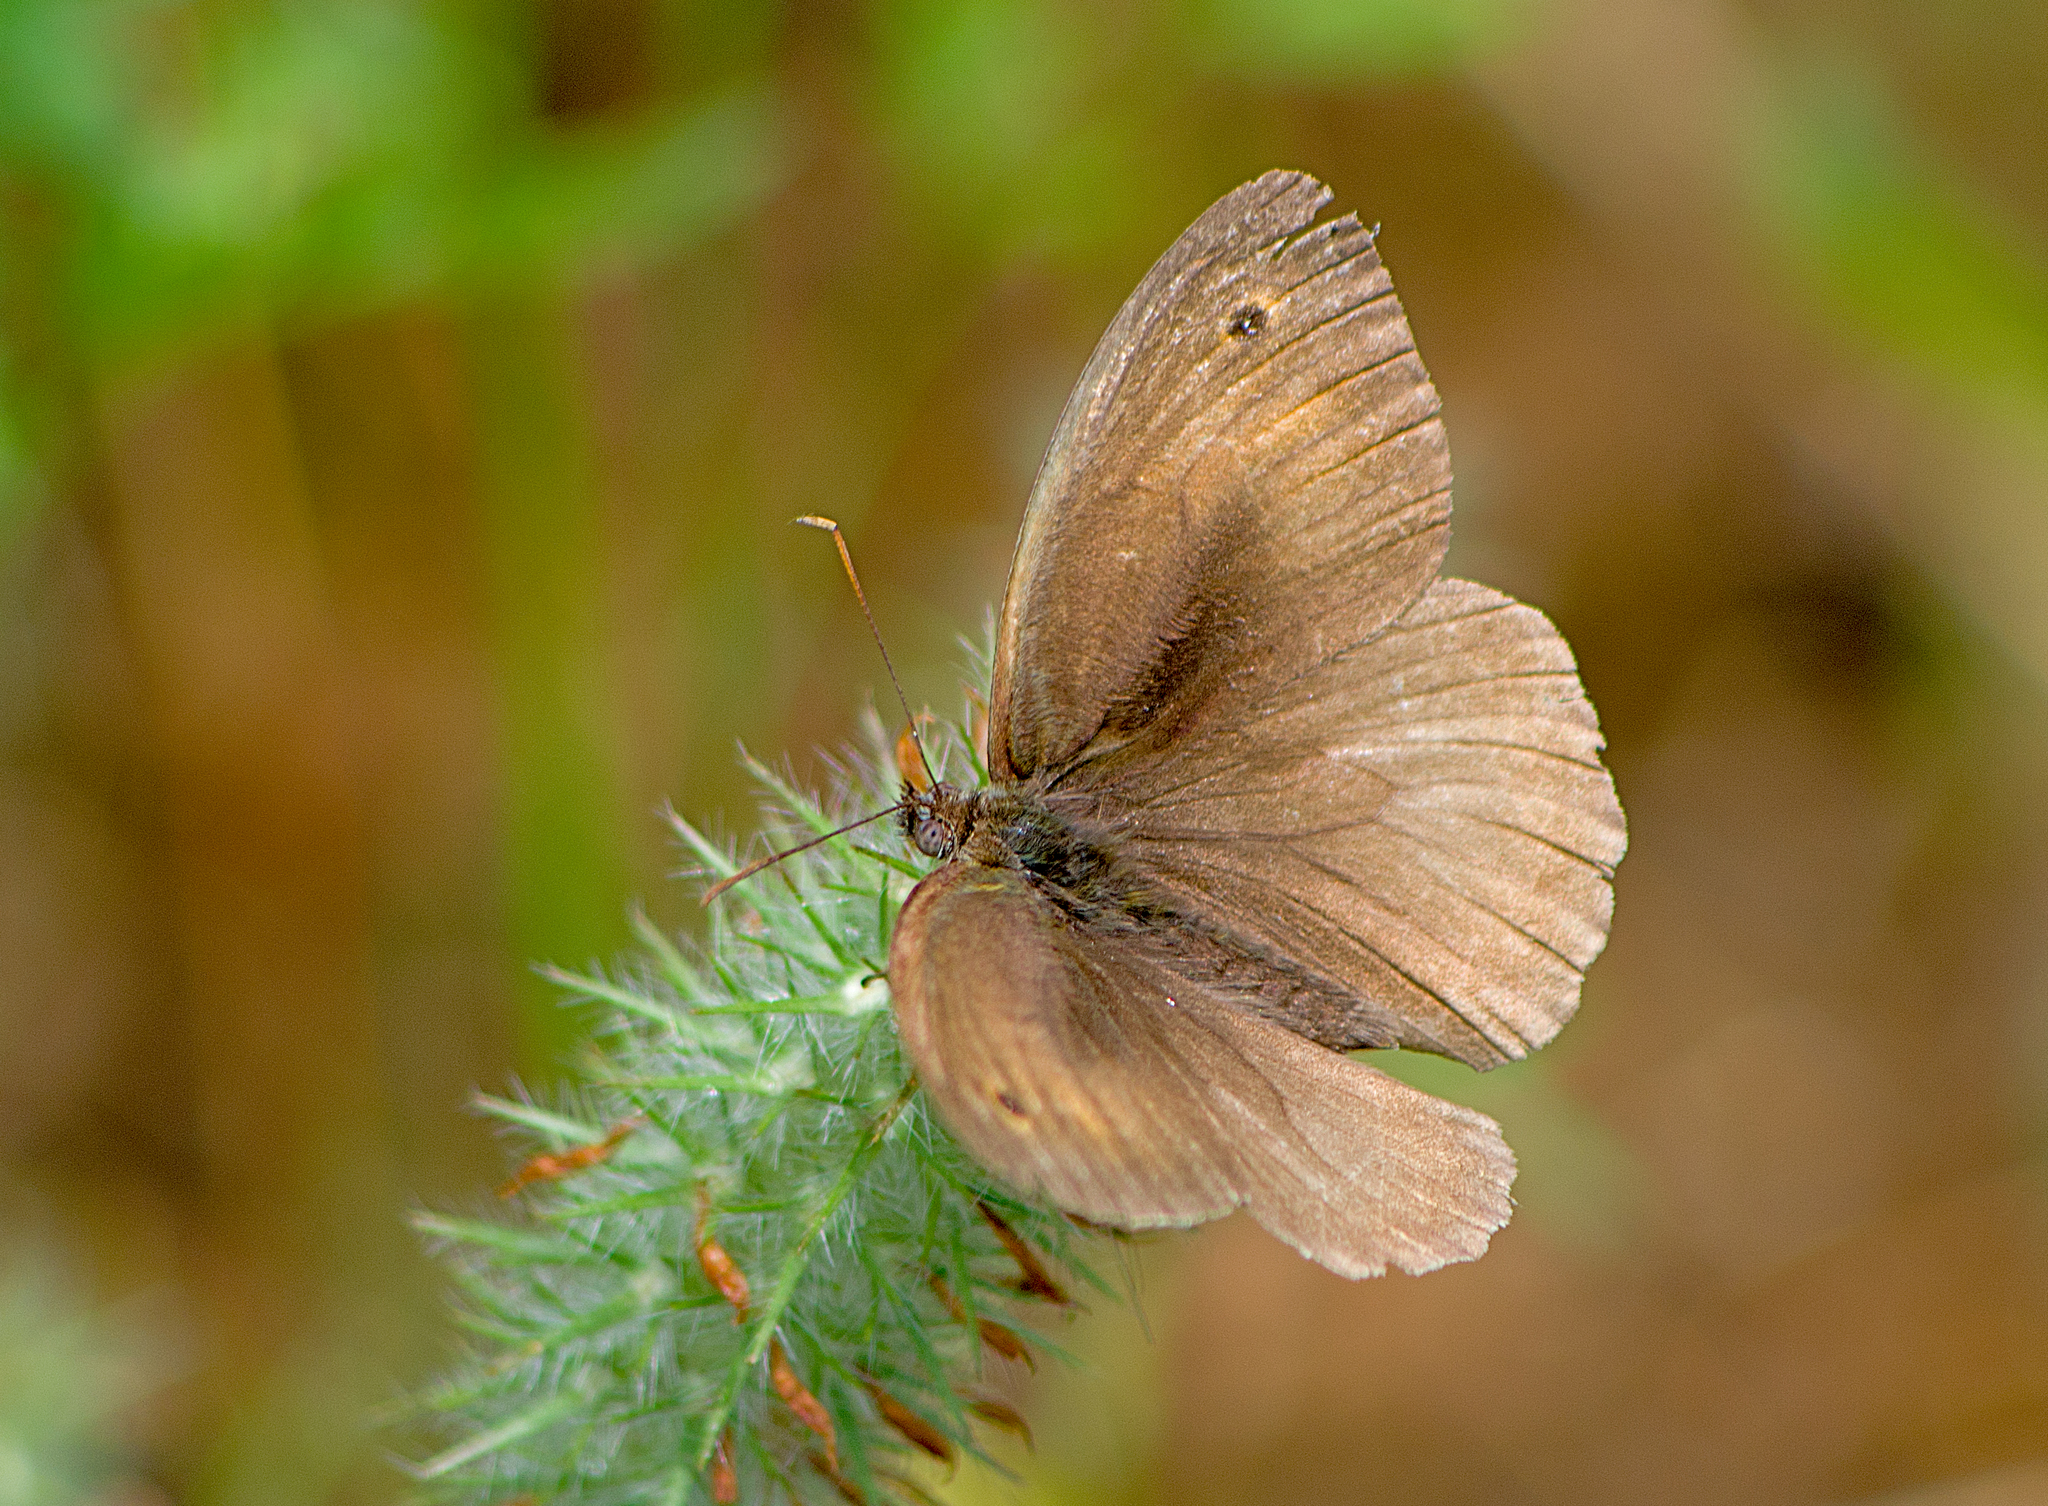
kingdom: Animalia
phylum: Arthropoda
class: Insecta
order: Lepidoptera
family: Nymphalidae
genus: Maniola
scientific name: Maniola jurtina
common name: Meadow brown
